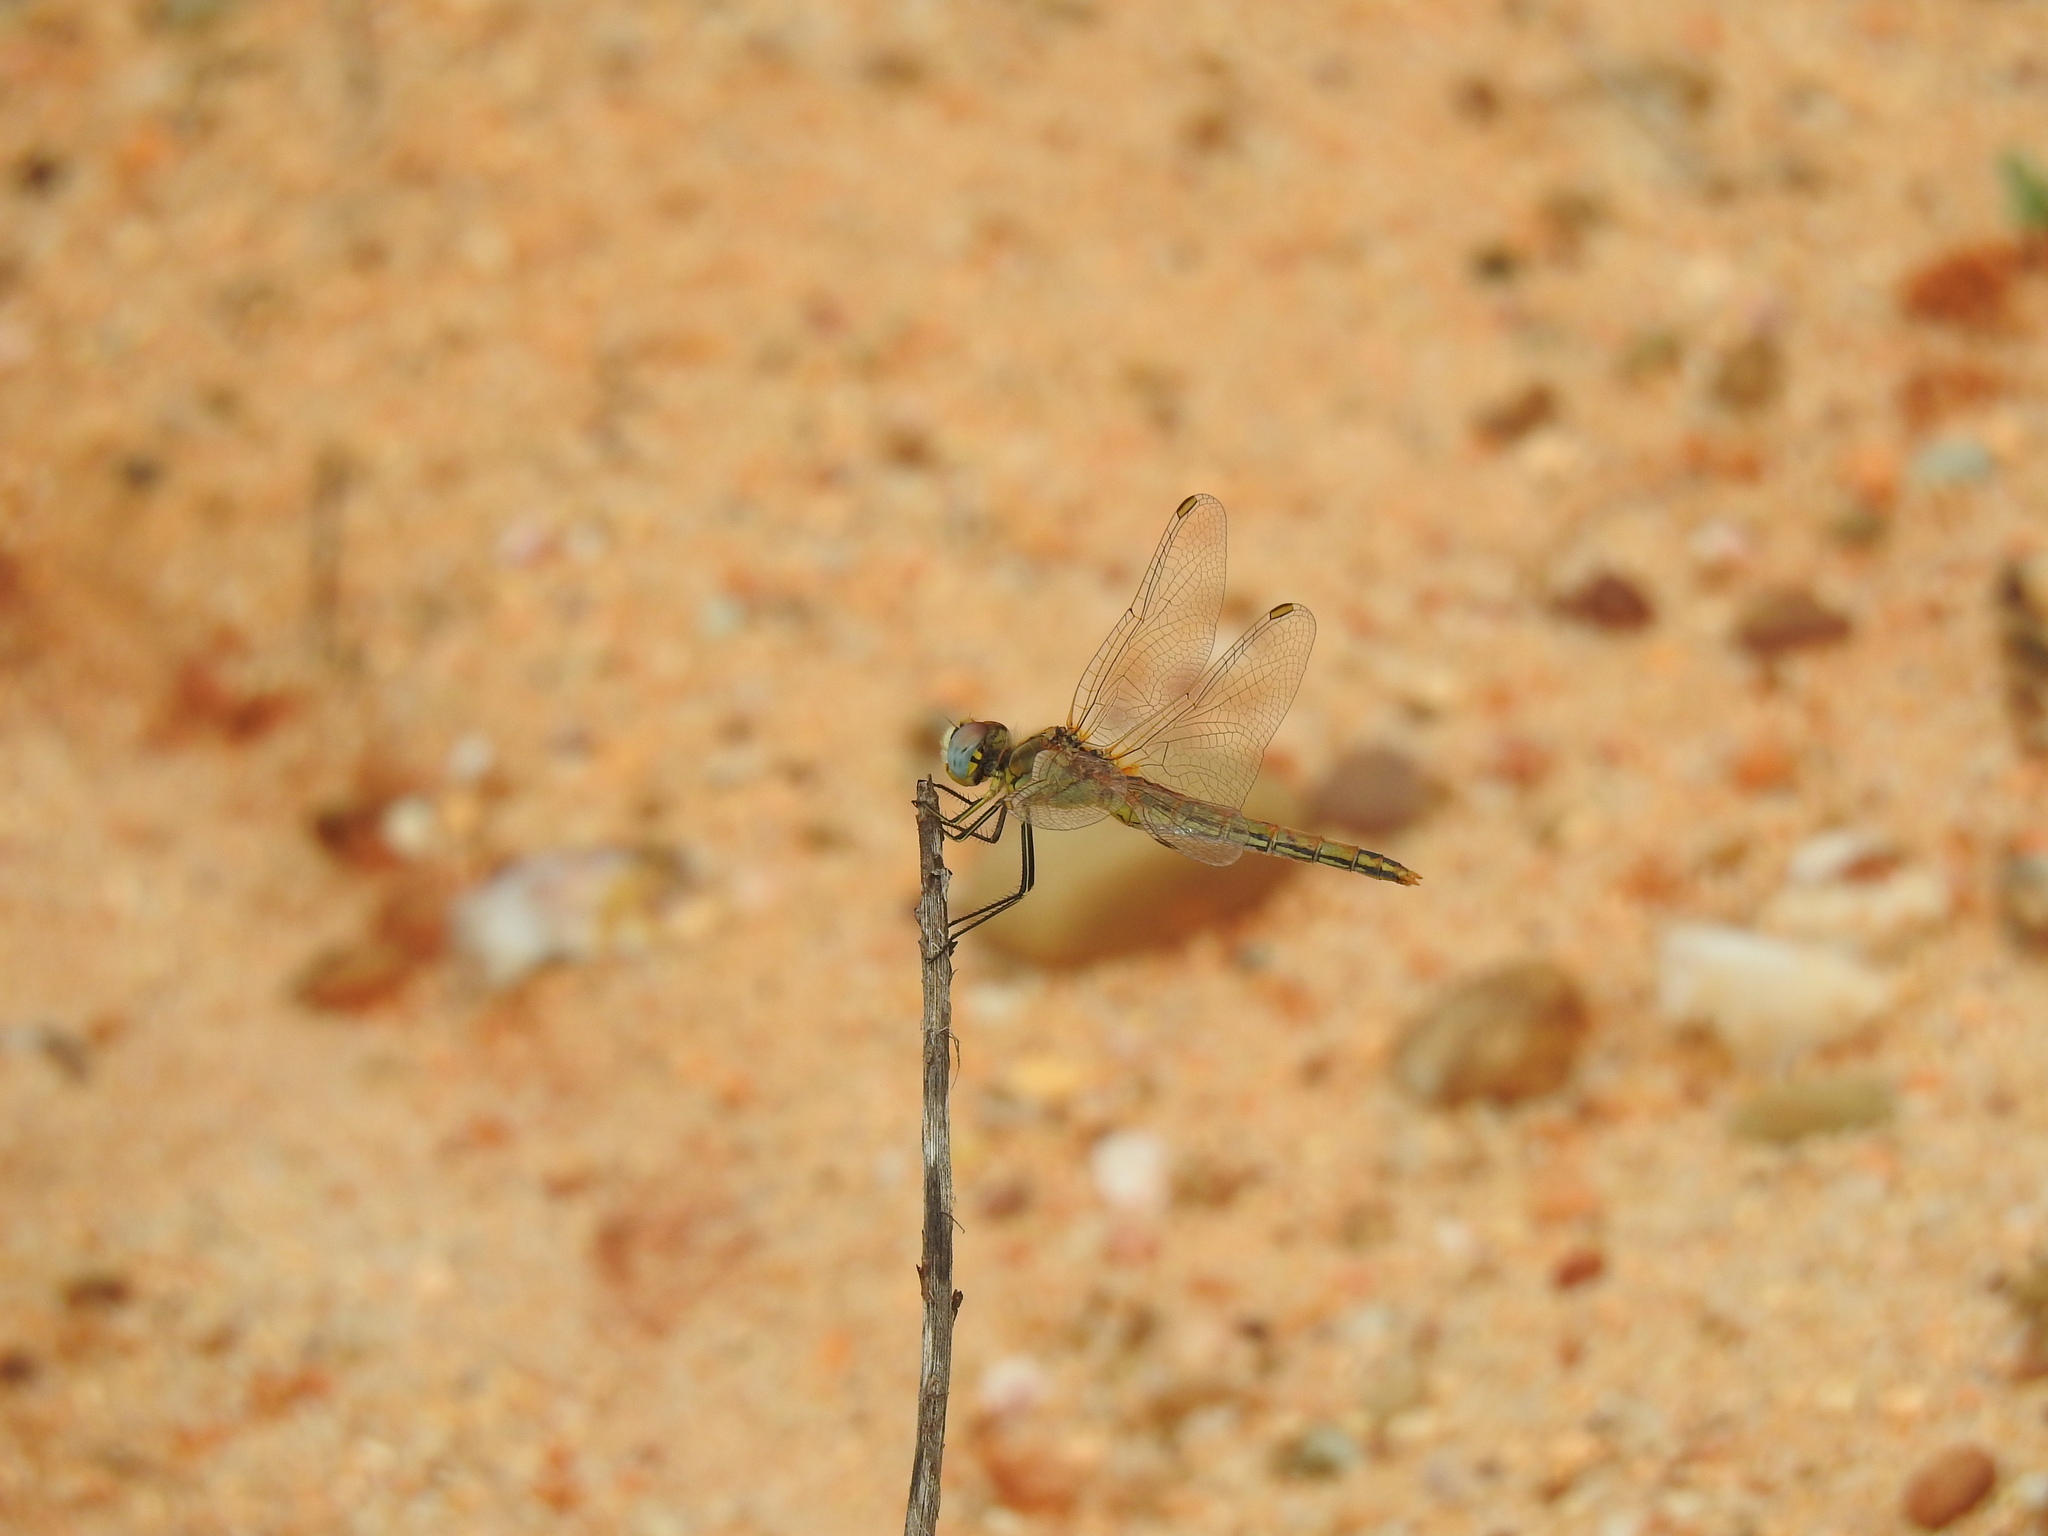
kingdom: Animalia
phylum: Arthropoda
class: Insecta
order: Odonata
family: Libellulidae
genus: Sympetrum
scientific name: Sympetrum fonscolombii
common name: Red-veined darter
